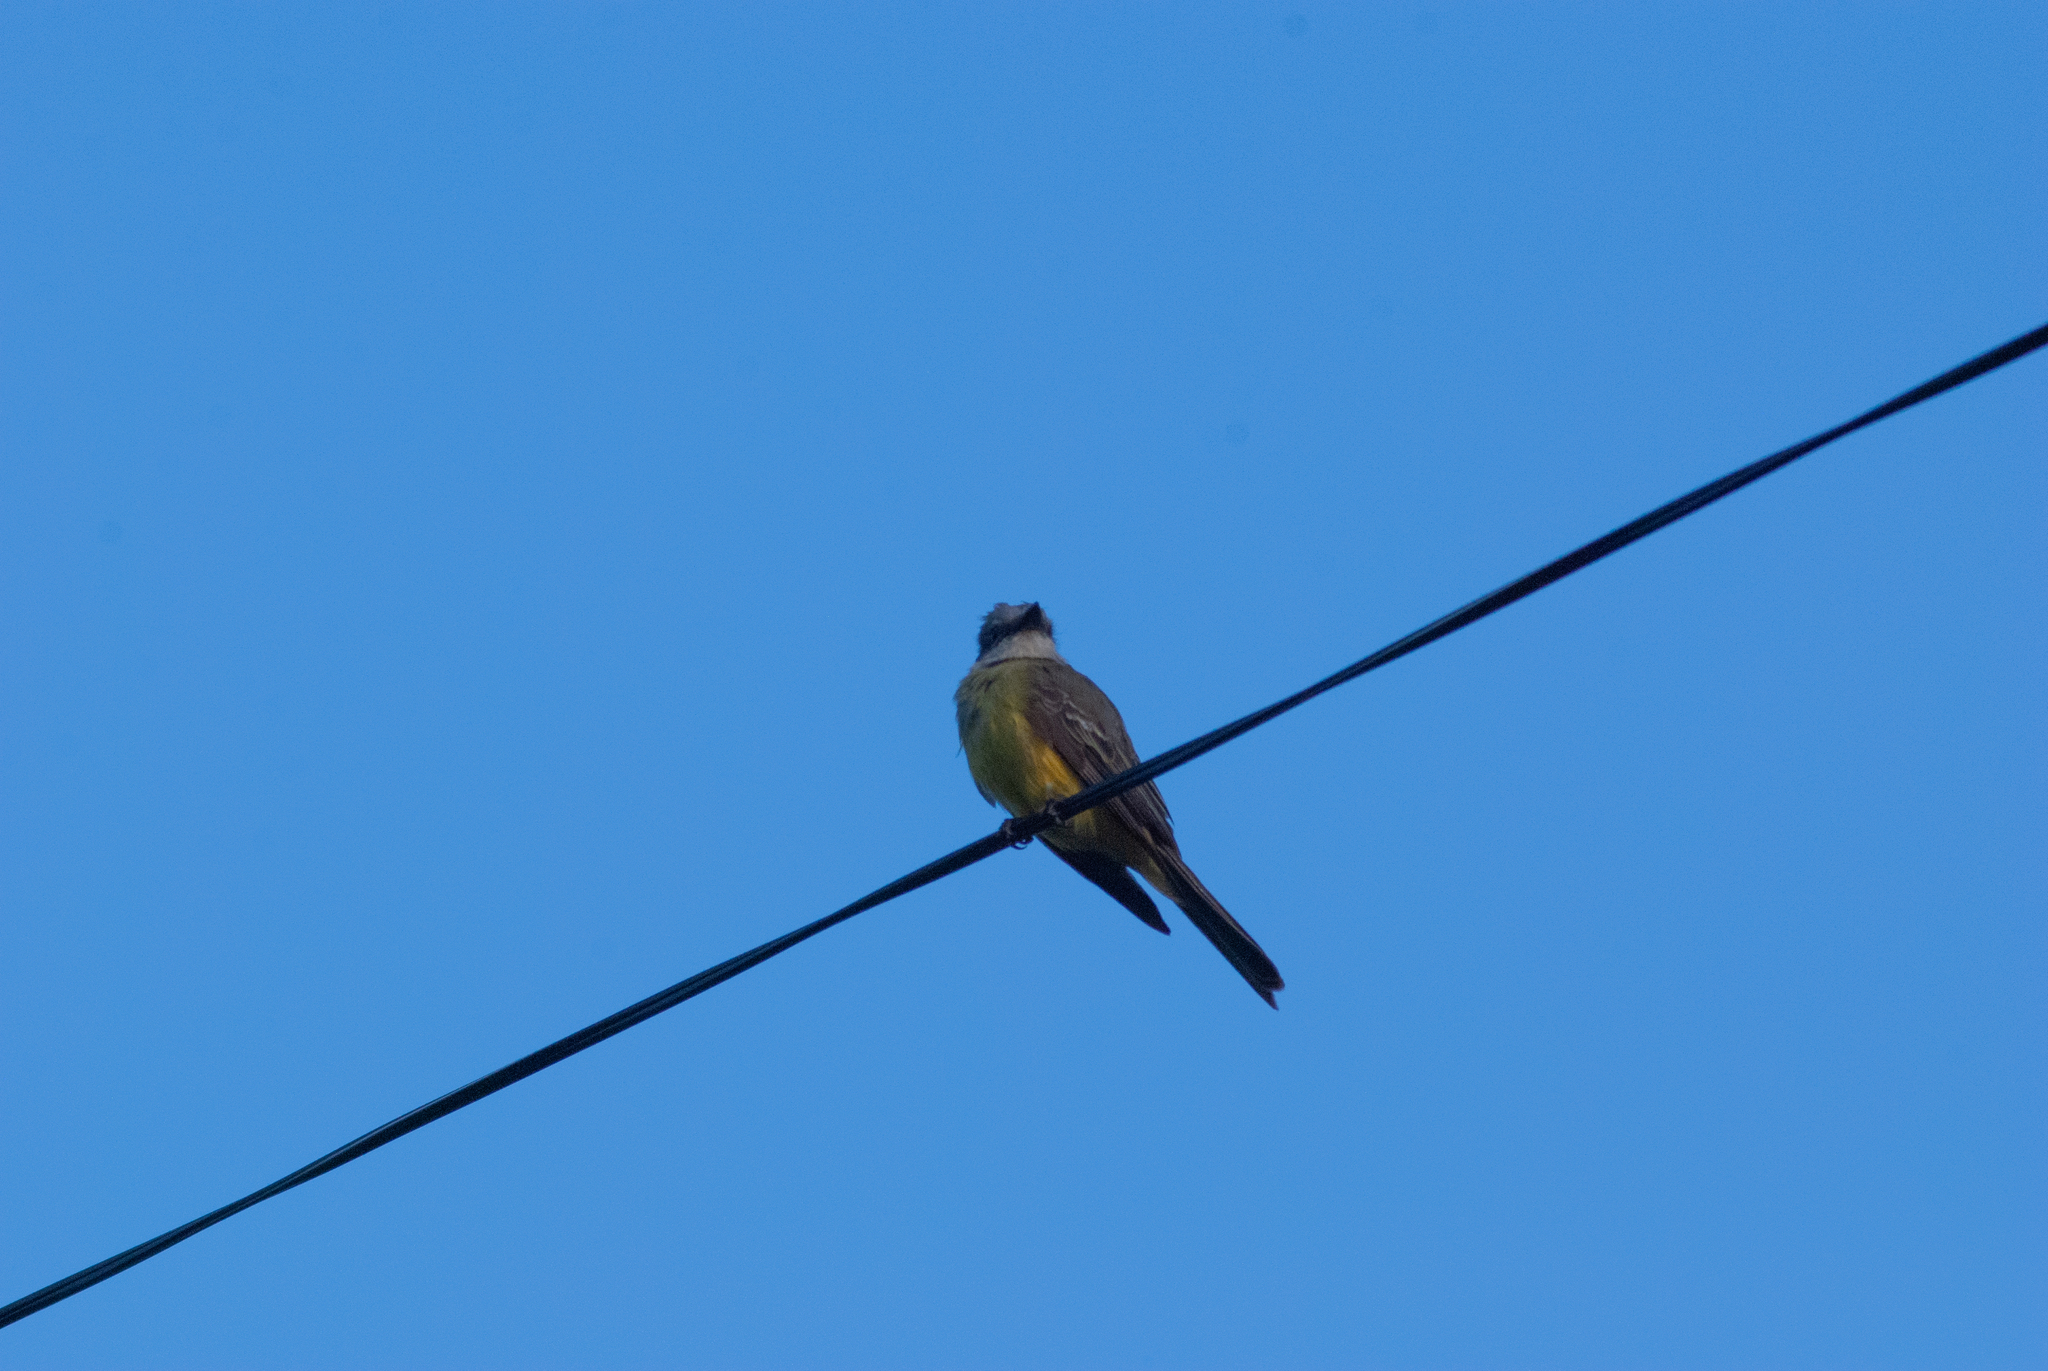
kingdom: Animalia
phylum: Chordata
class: Aves
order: Passeriformes
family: Tyrannidae
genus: Tyrannus
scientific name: Tyrannus melancholicus
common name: Tropical kingbird
